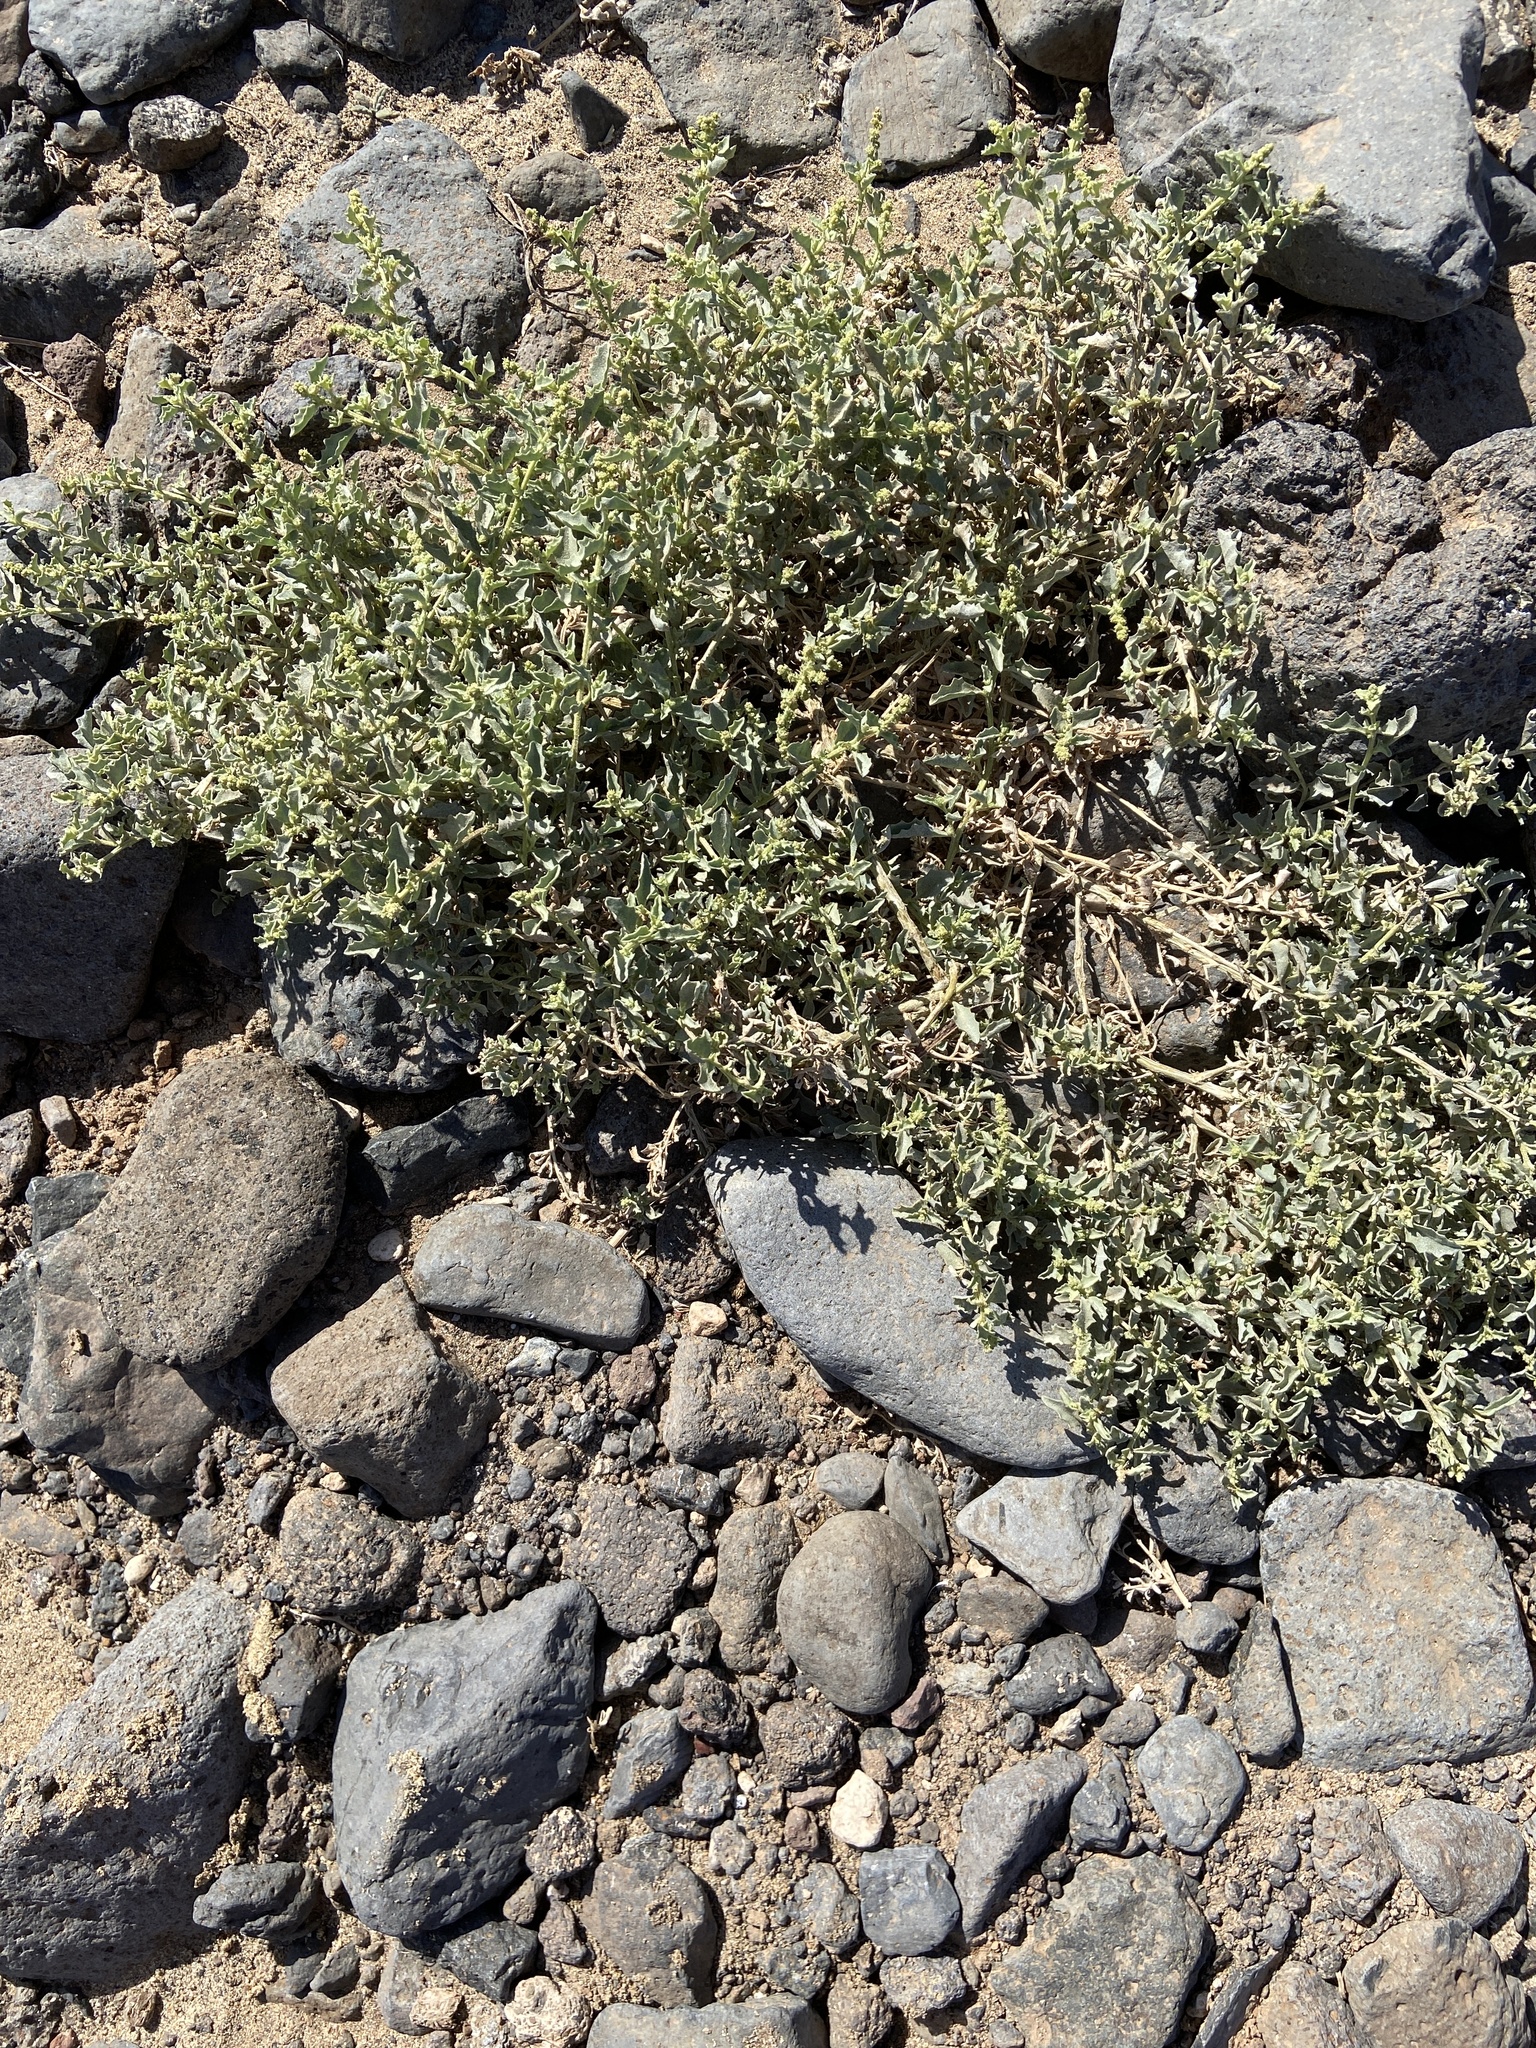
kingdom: Plantae
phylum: Tracheophyta
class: Magnoliopsida
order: Caryophyllales
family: Amaranthaceae
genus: Atriplex
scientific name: Atriplex semilunaris
